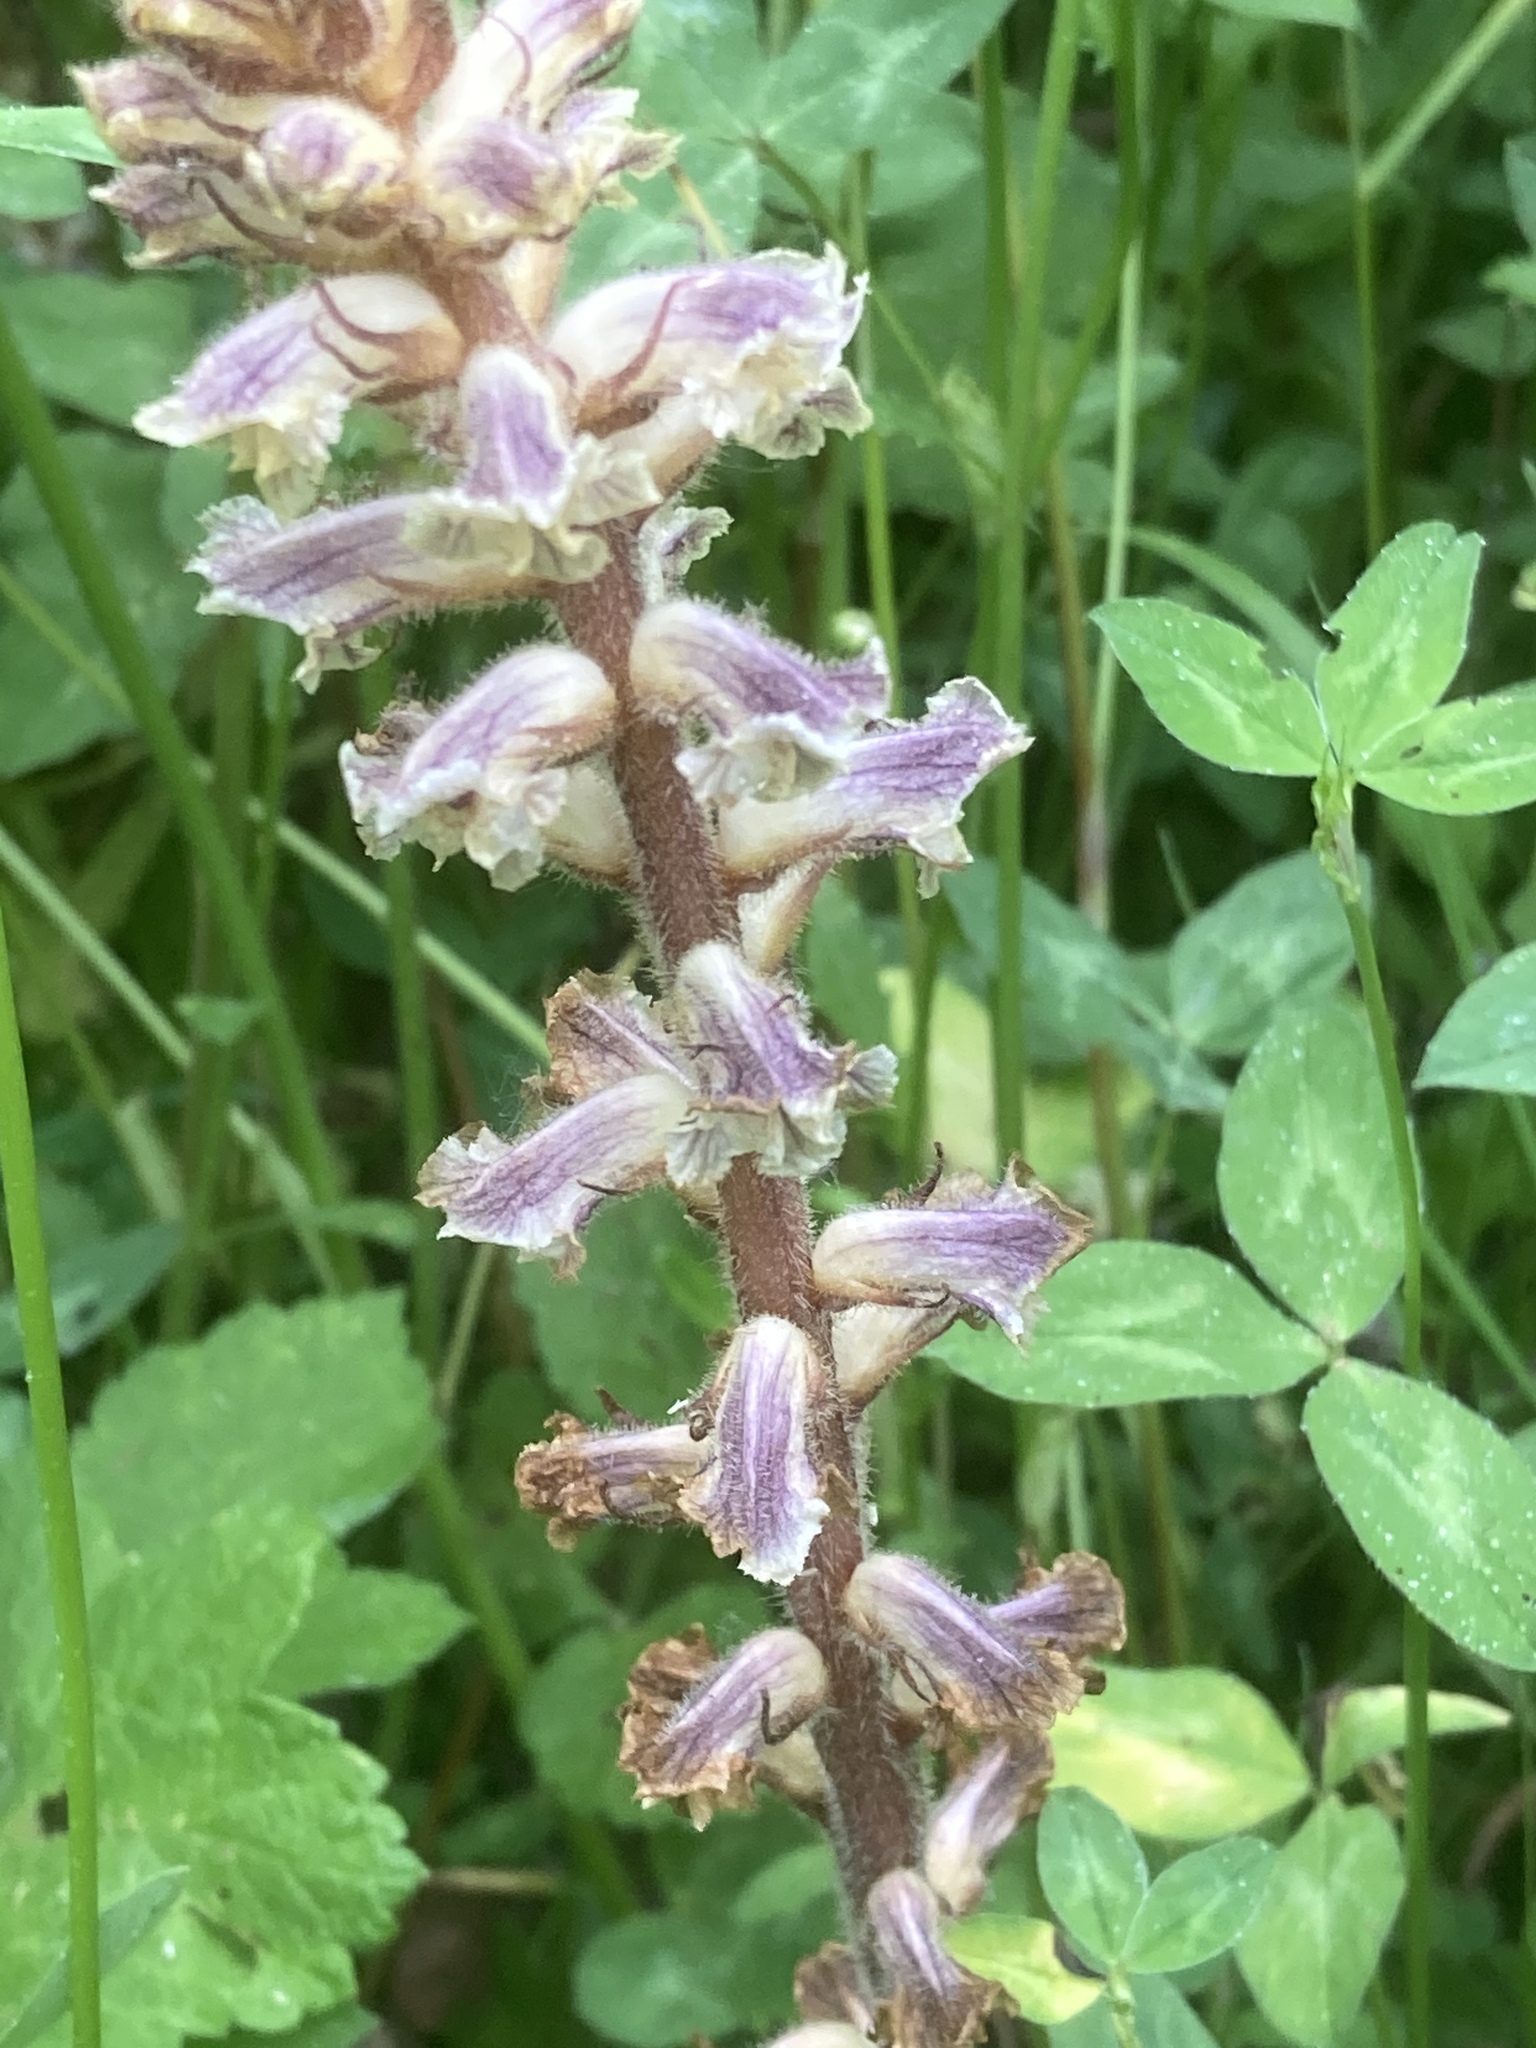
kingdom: Plantae
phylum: Tracheophyta
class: Magnoliopsida
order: Lamiales
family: Orobanchaceae
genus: Orobanche
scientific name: Orobanche minor
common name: Common broomrape
